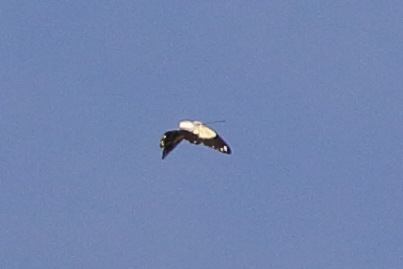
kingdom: Animalia
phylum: Arthropoda
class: Insecta
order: Lepidoptera
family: Pieridae
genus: Belenois
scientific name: Belenois java
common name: Caper white
